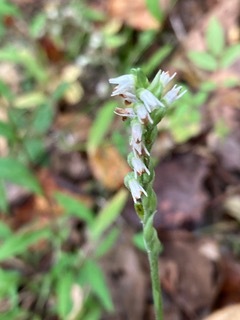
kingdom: Plantae
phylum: Tracheophyta
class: Liliopsida
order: Asparagales
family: Orchidaceae
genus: Spiranthes
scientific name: Spiranthes ovalis
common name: October ladies'-tresses
